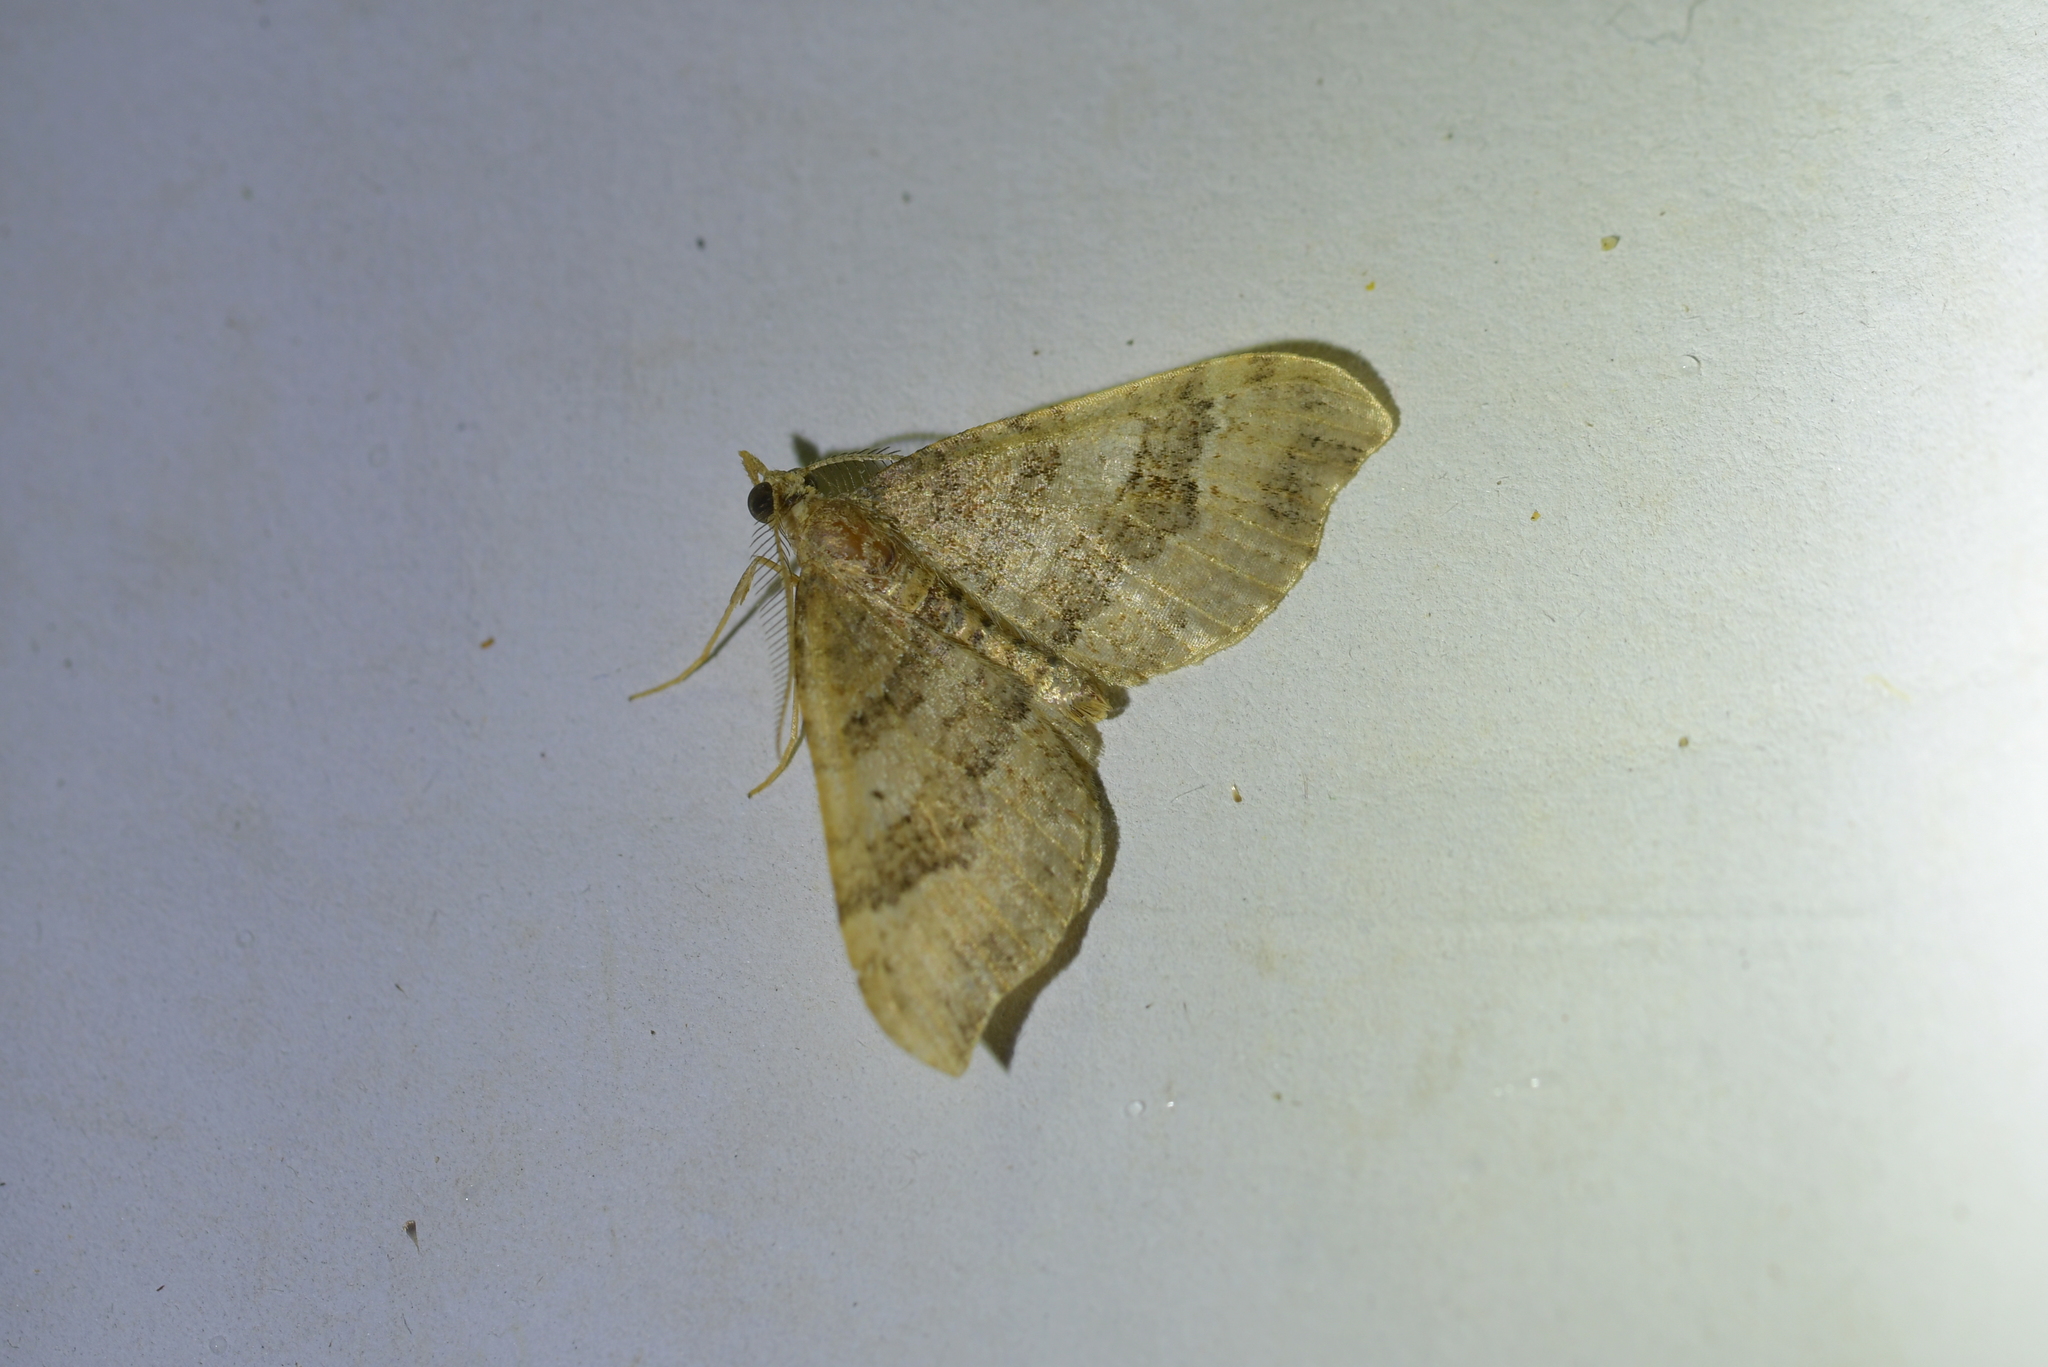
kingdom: Animalia
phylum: Arthropoda
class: Insecta
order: Lepidoptera
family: Geometridae
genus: Homodotis
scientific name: Homodotis megaspilata
